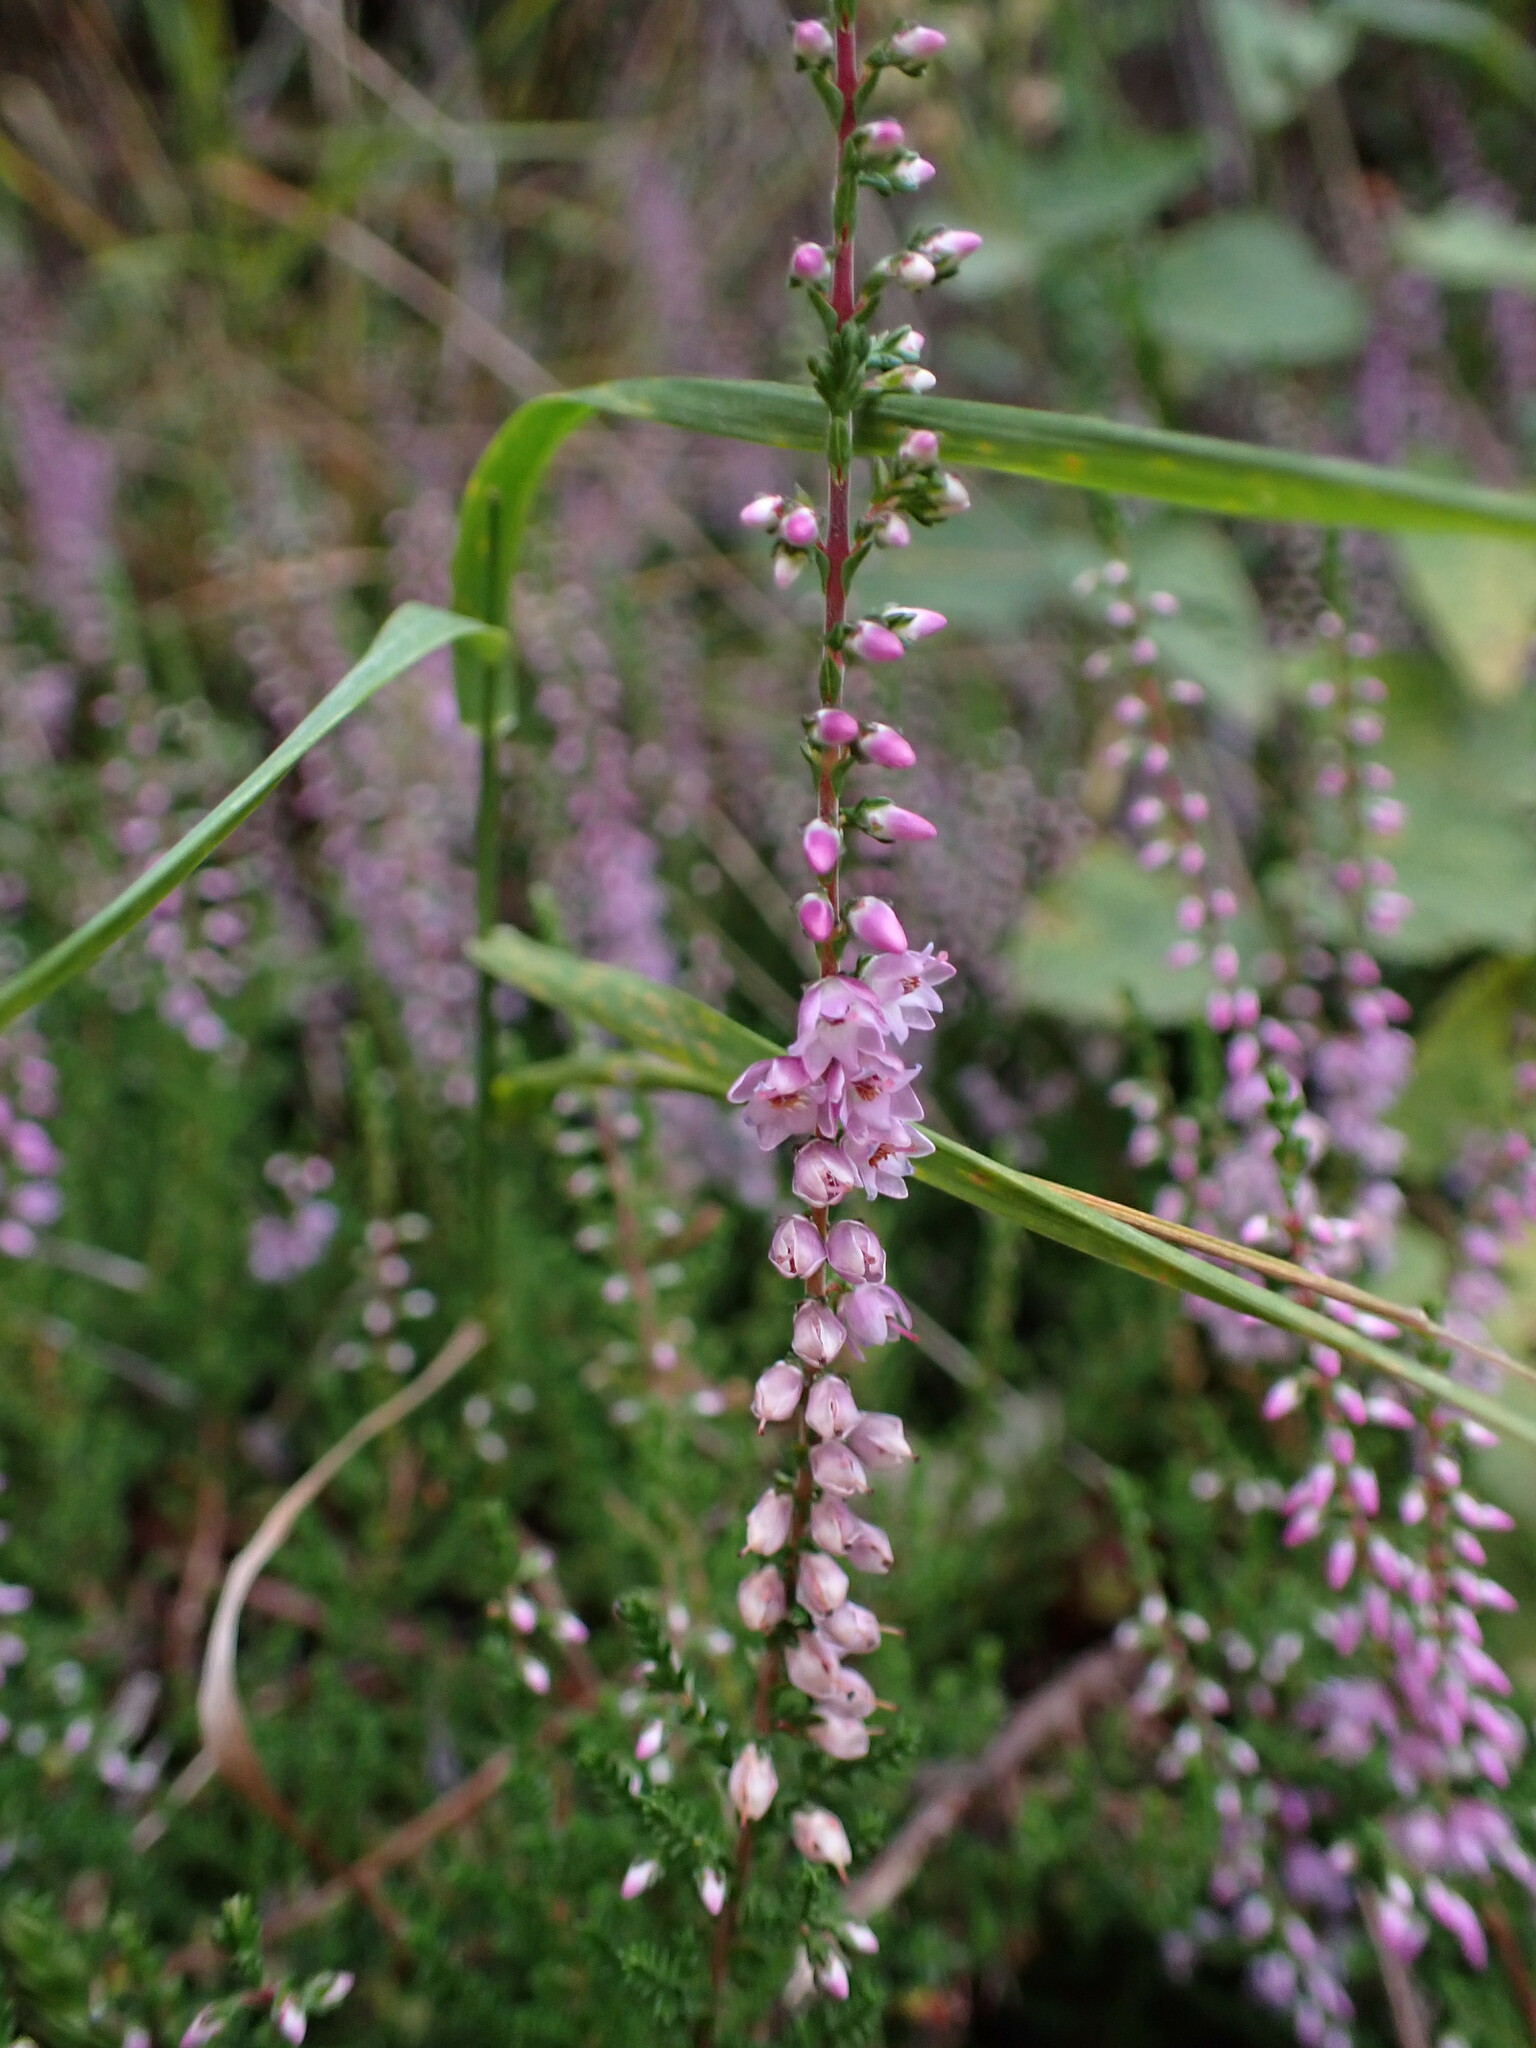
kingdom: Plantae
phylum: Tracheophyta
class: Magnoliopsida
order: Ericales
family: Ericaceae
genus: Calluna
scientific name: Calluna vulgaris
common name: Heather
